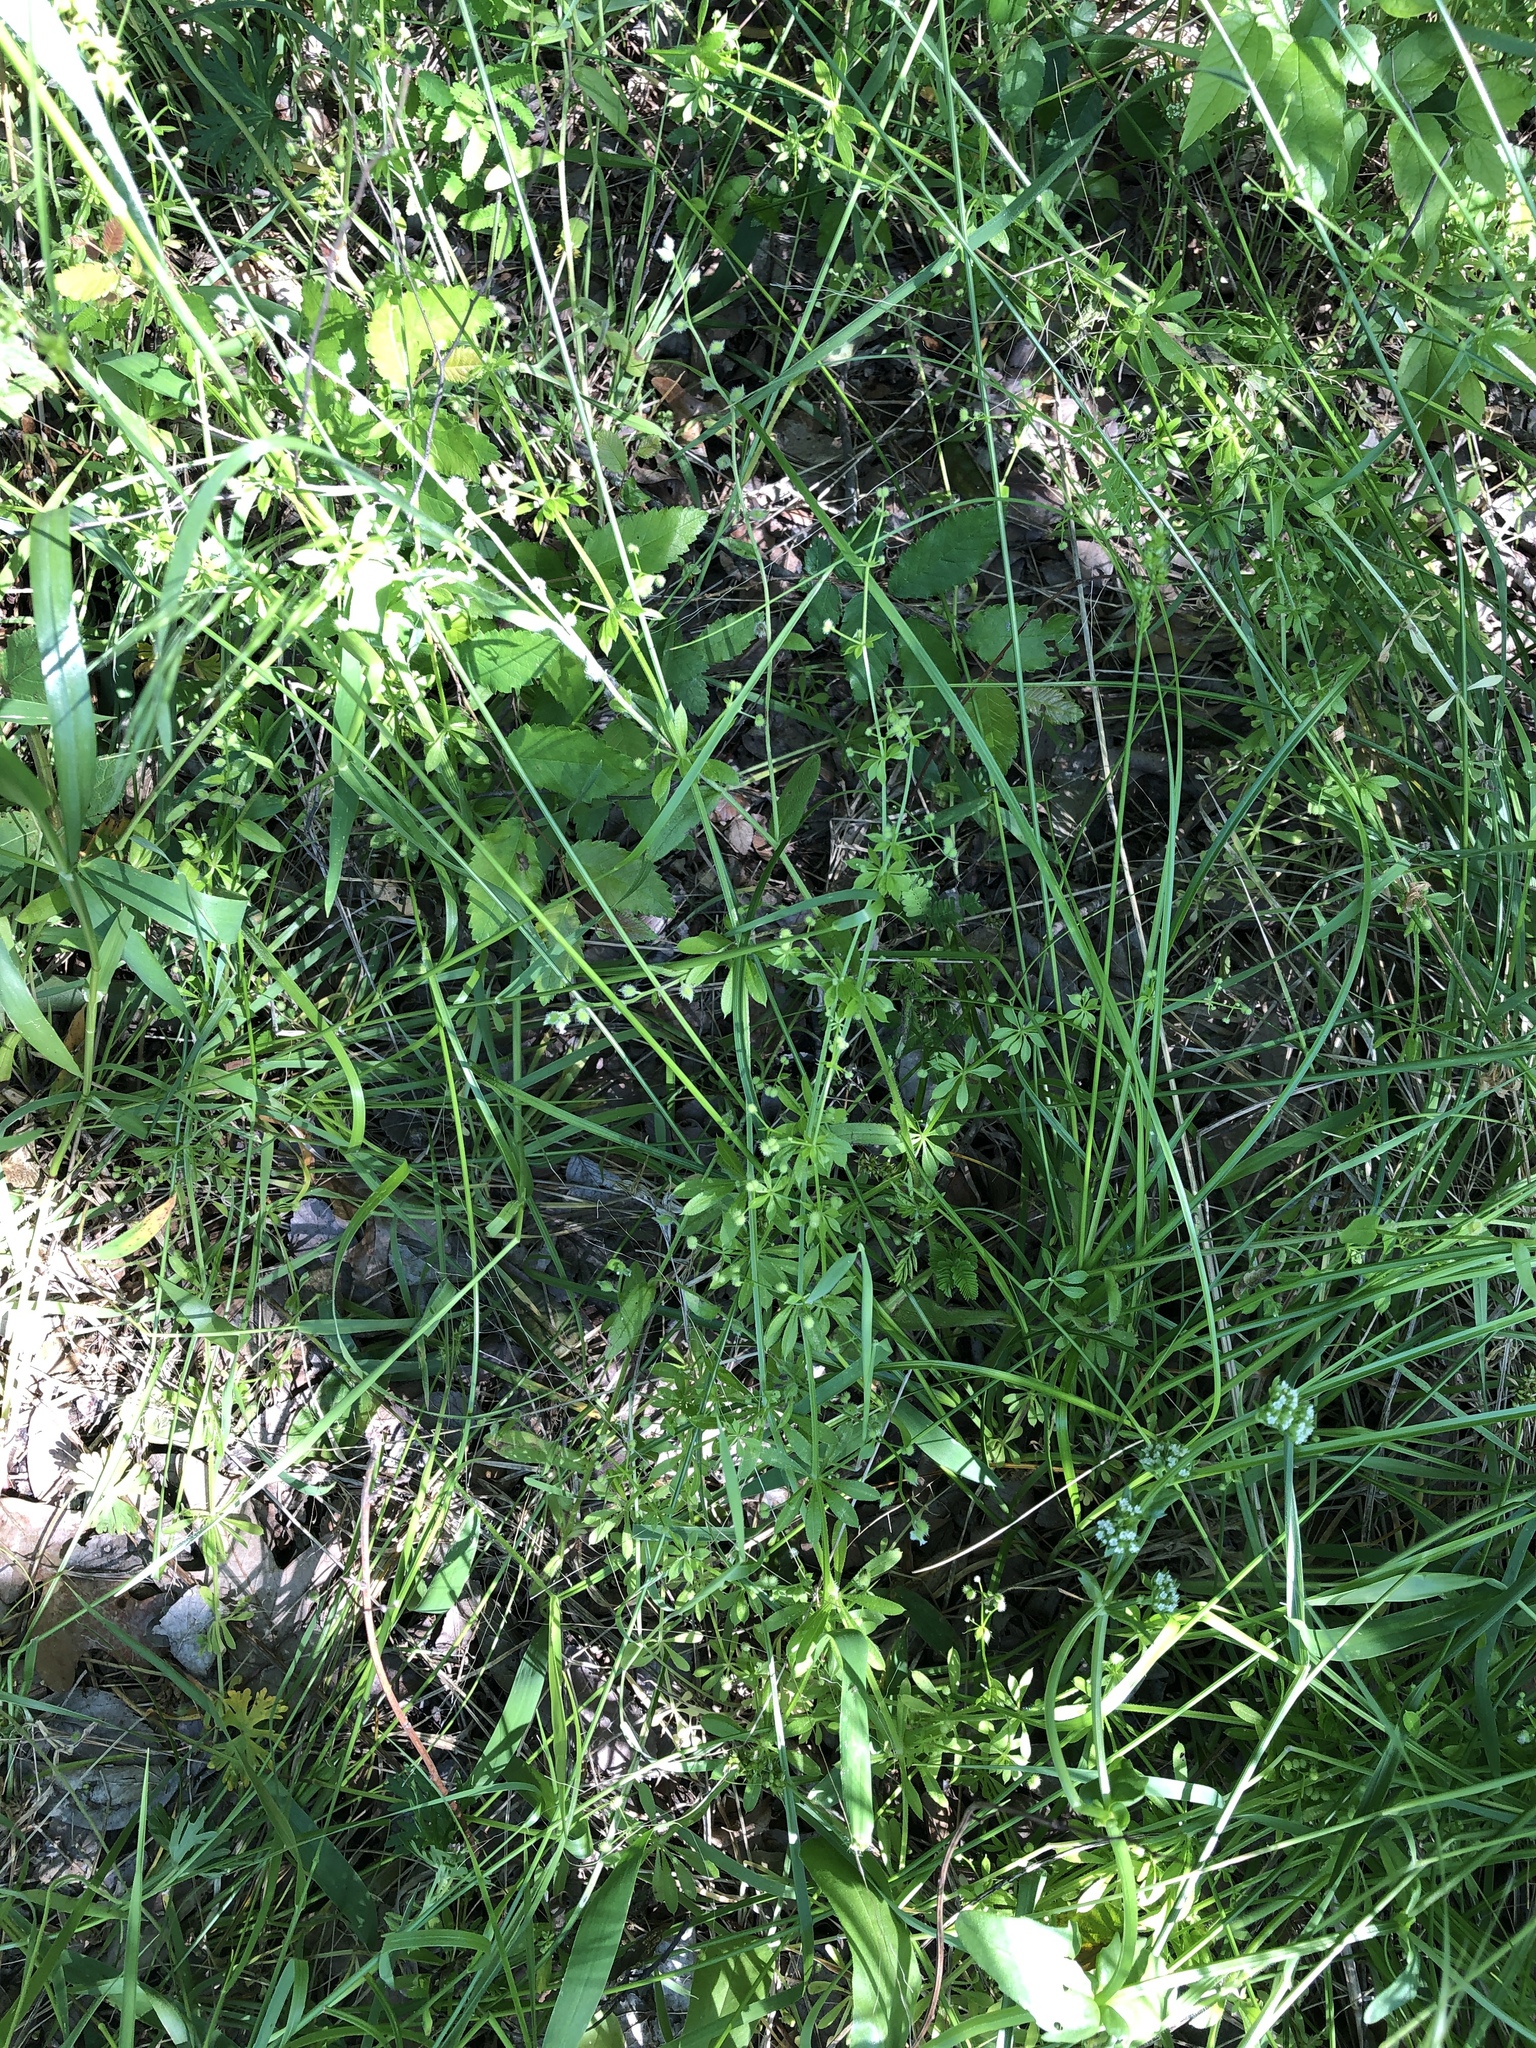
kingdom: Plantae
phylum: Tracheophyta
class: Magnoliopsida
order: Gentianales
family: Rubiaceae
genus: Galium
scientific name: Galium aparine
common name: Cleavers
